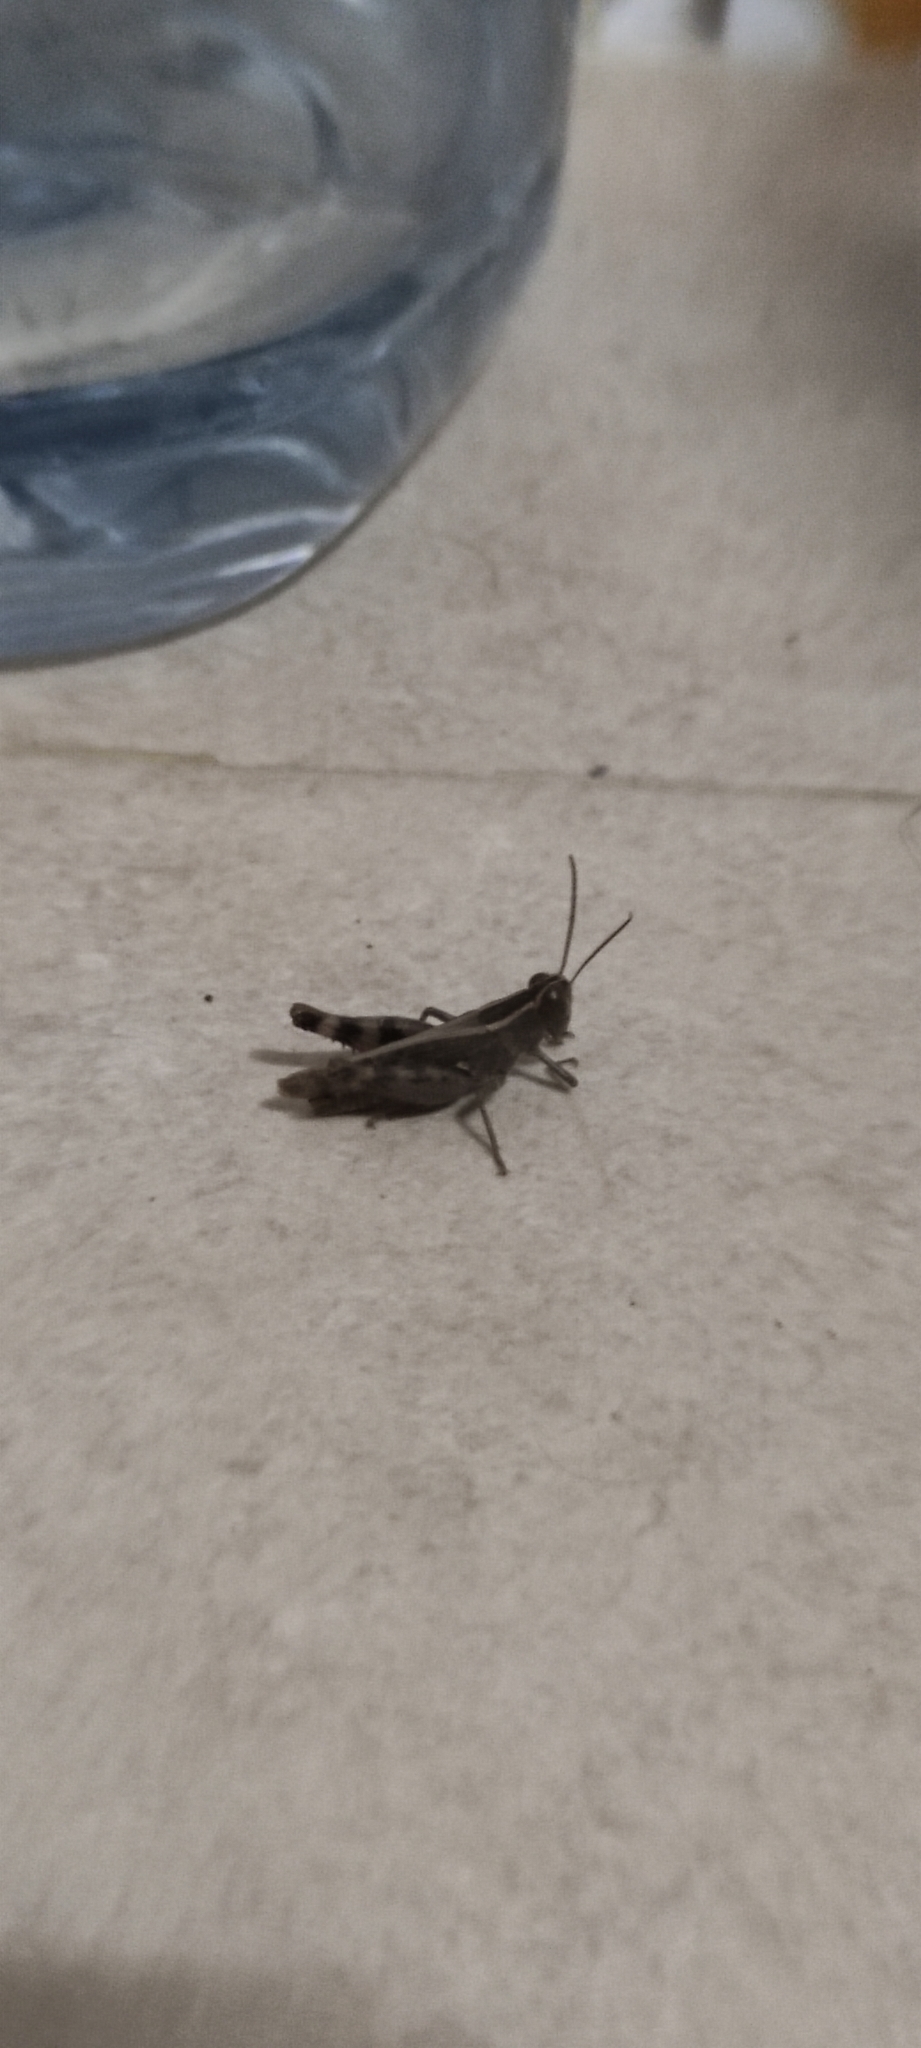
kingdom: Animalia
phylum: Arthropoda
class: Insecta
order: Orthoptera
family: Acrididae
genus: Heteracris
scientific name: Heteracris littoralis
